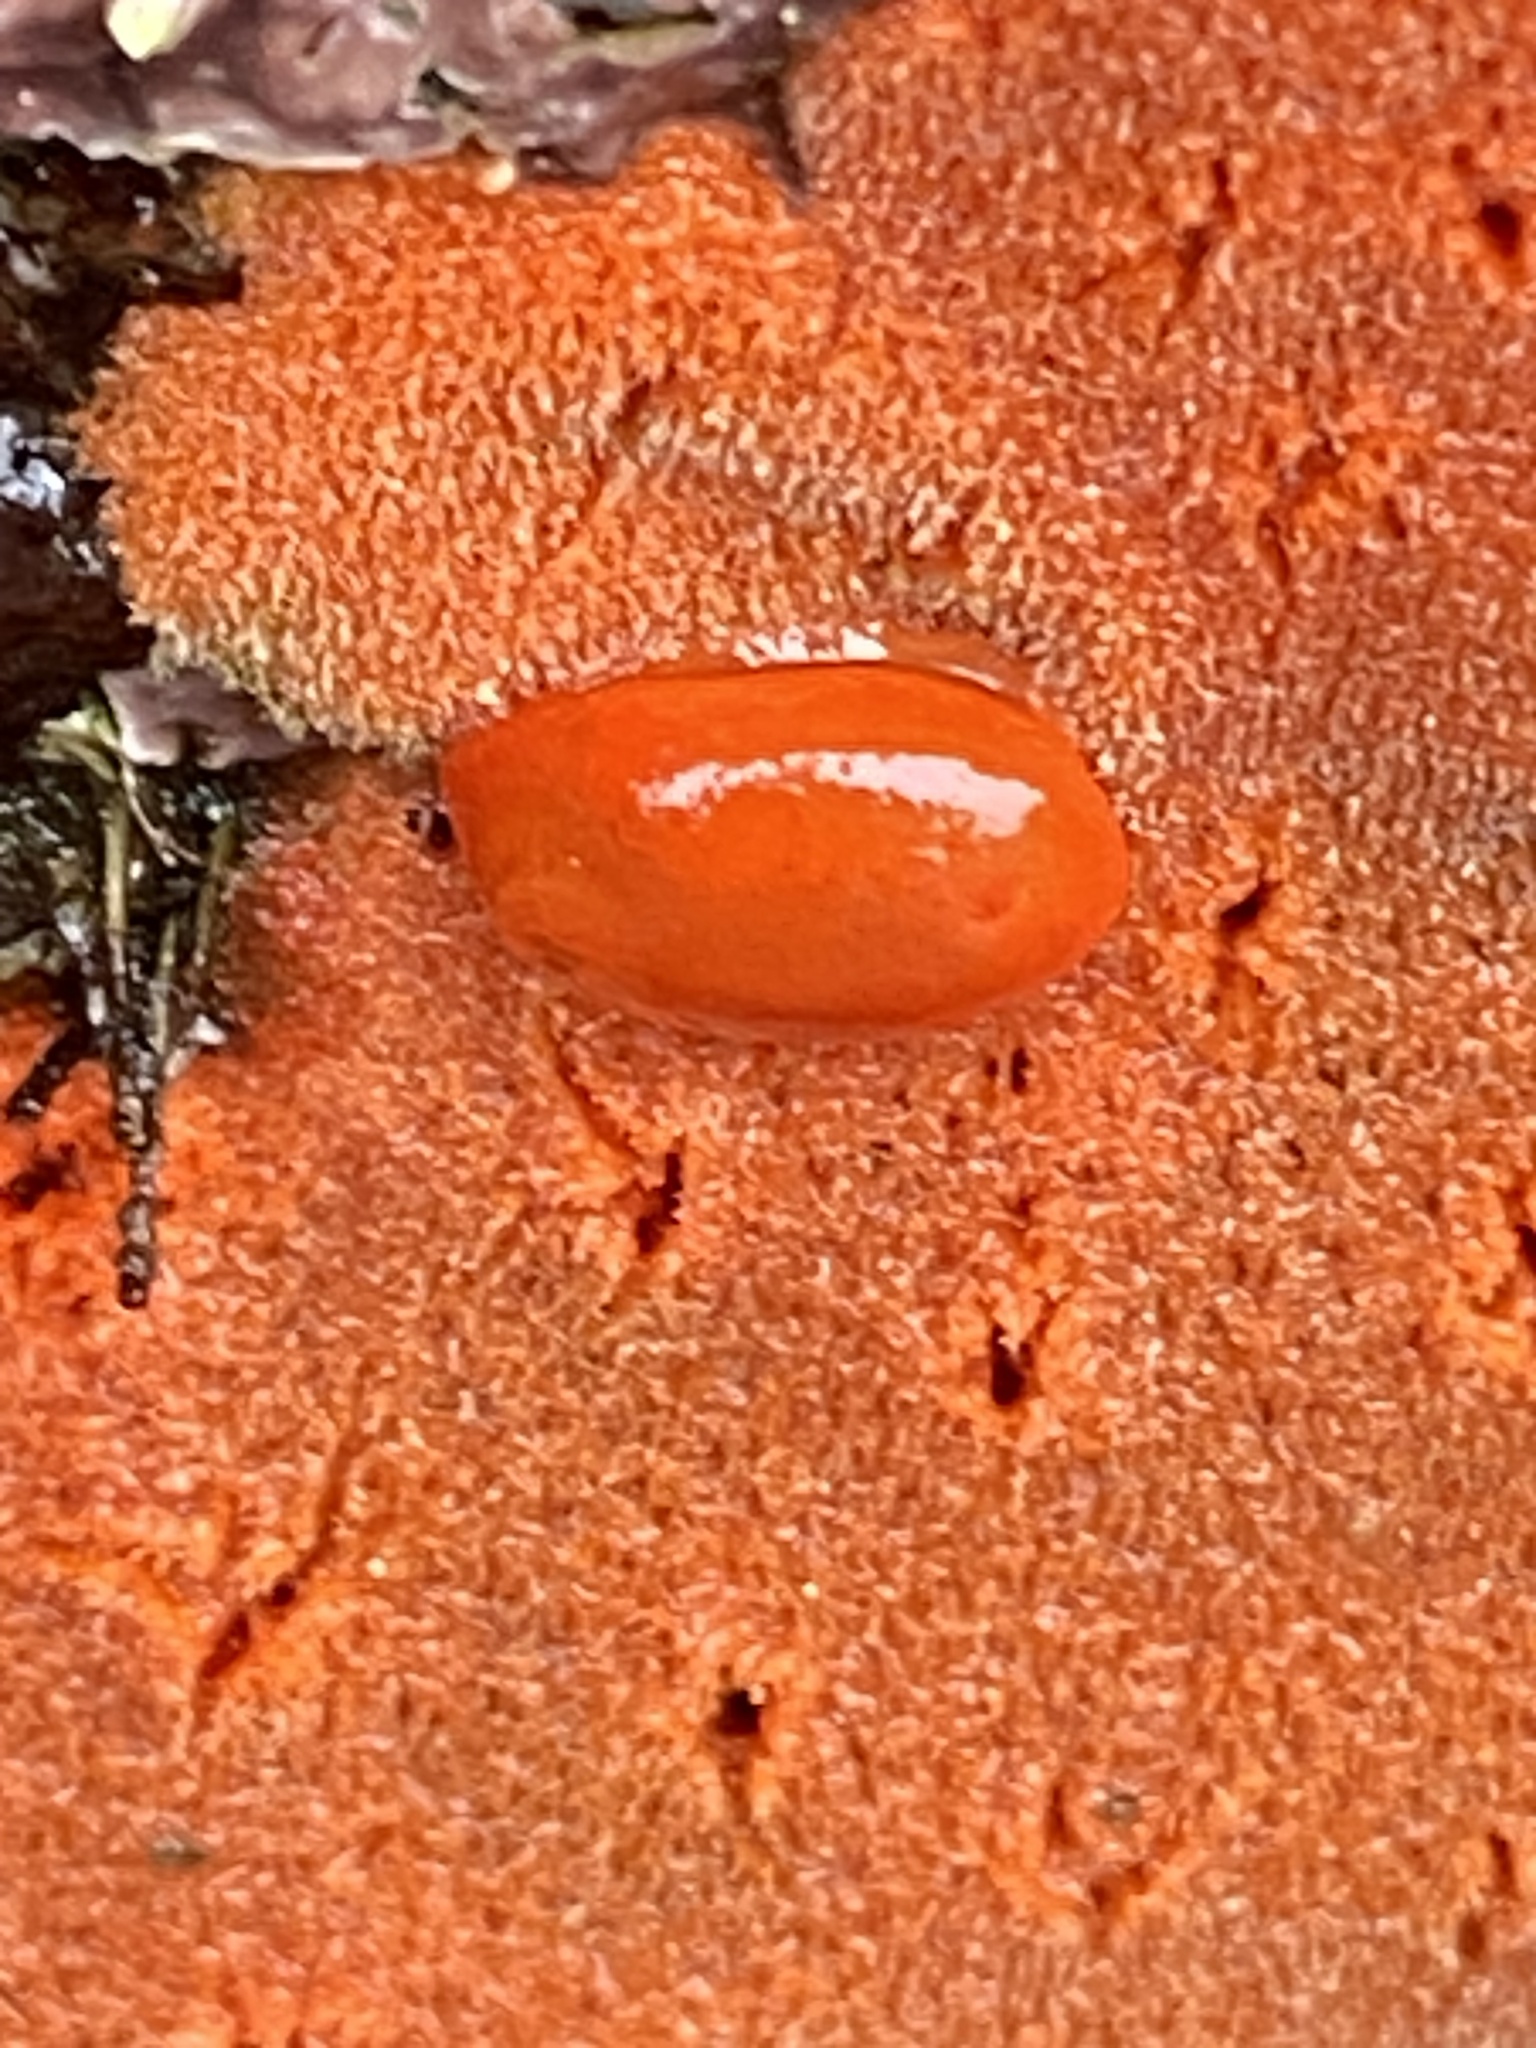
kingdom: Animalia
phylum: Mollusca
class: Gastropoda
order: Nudibranchia
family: Discodorididae
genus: Rostanga
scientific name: Rostanga pulchra
